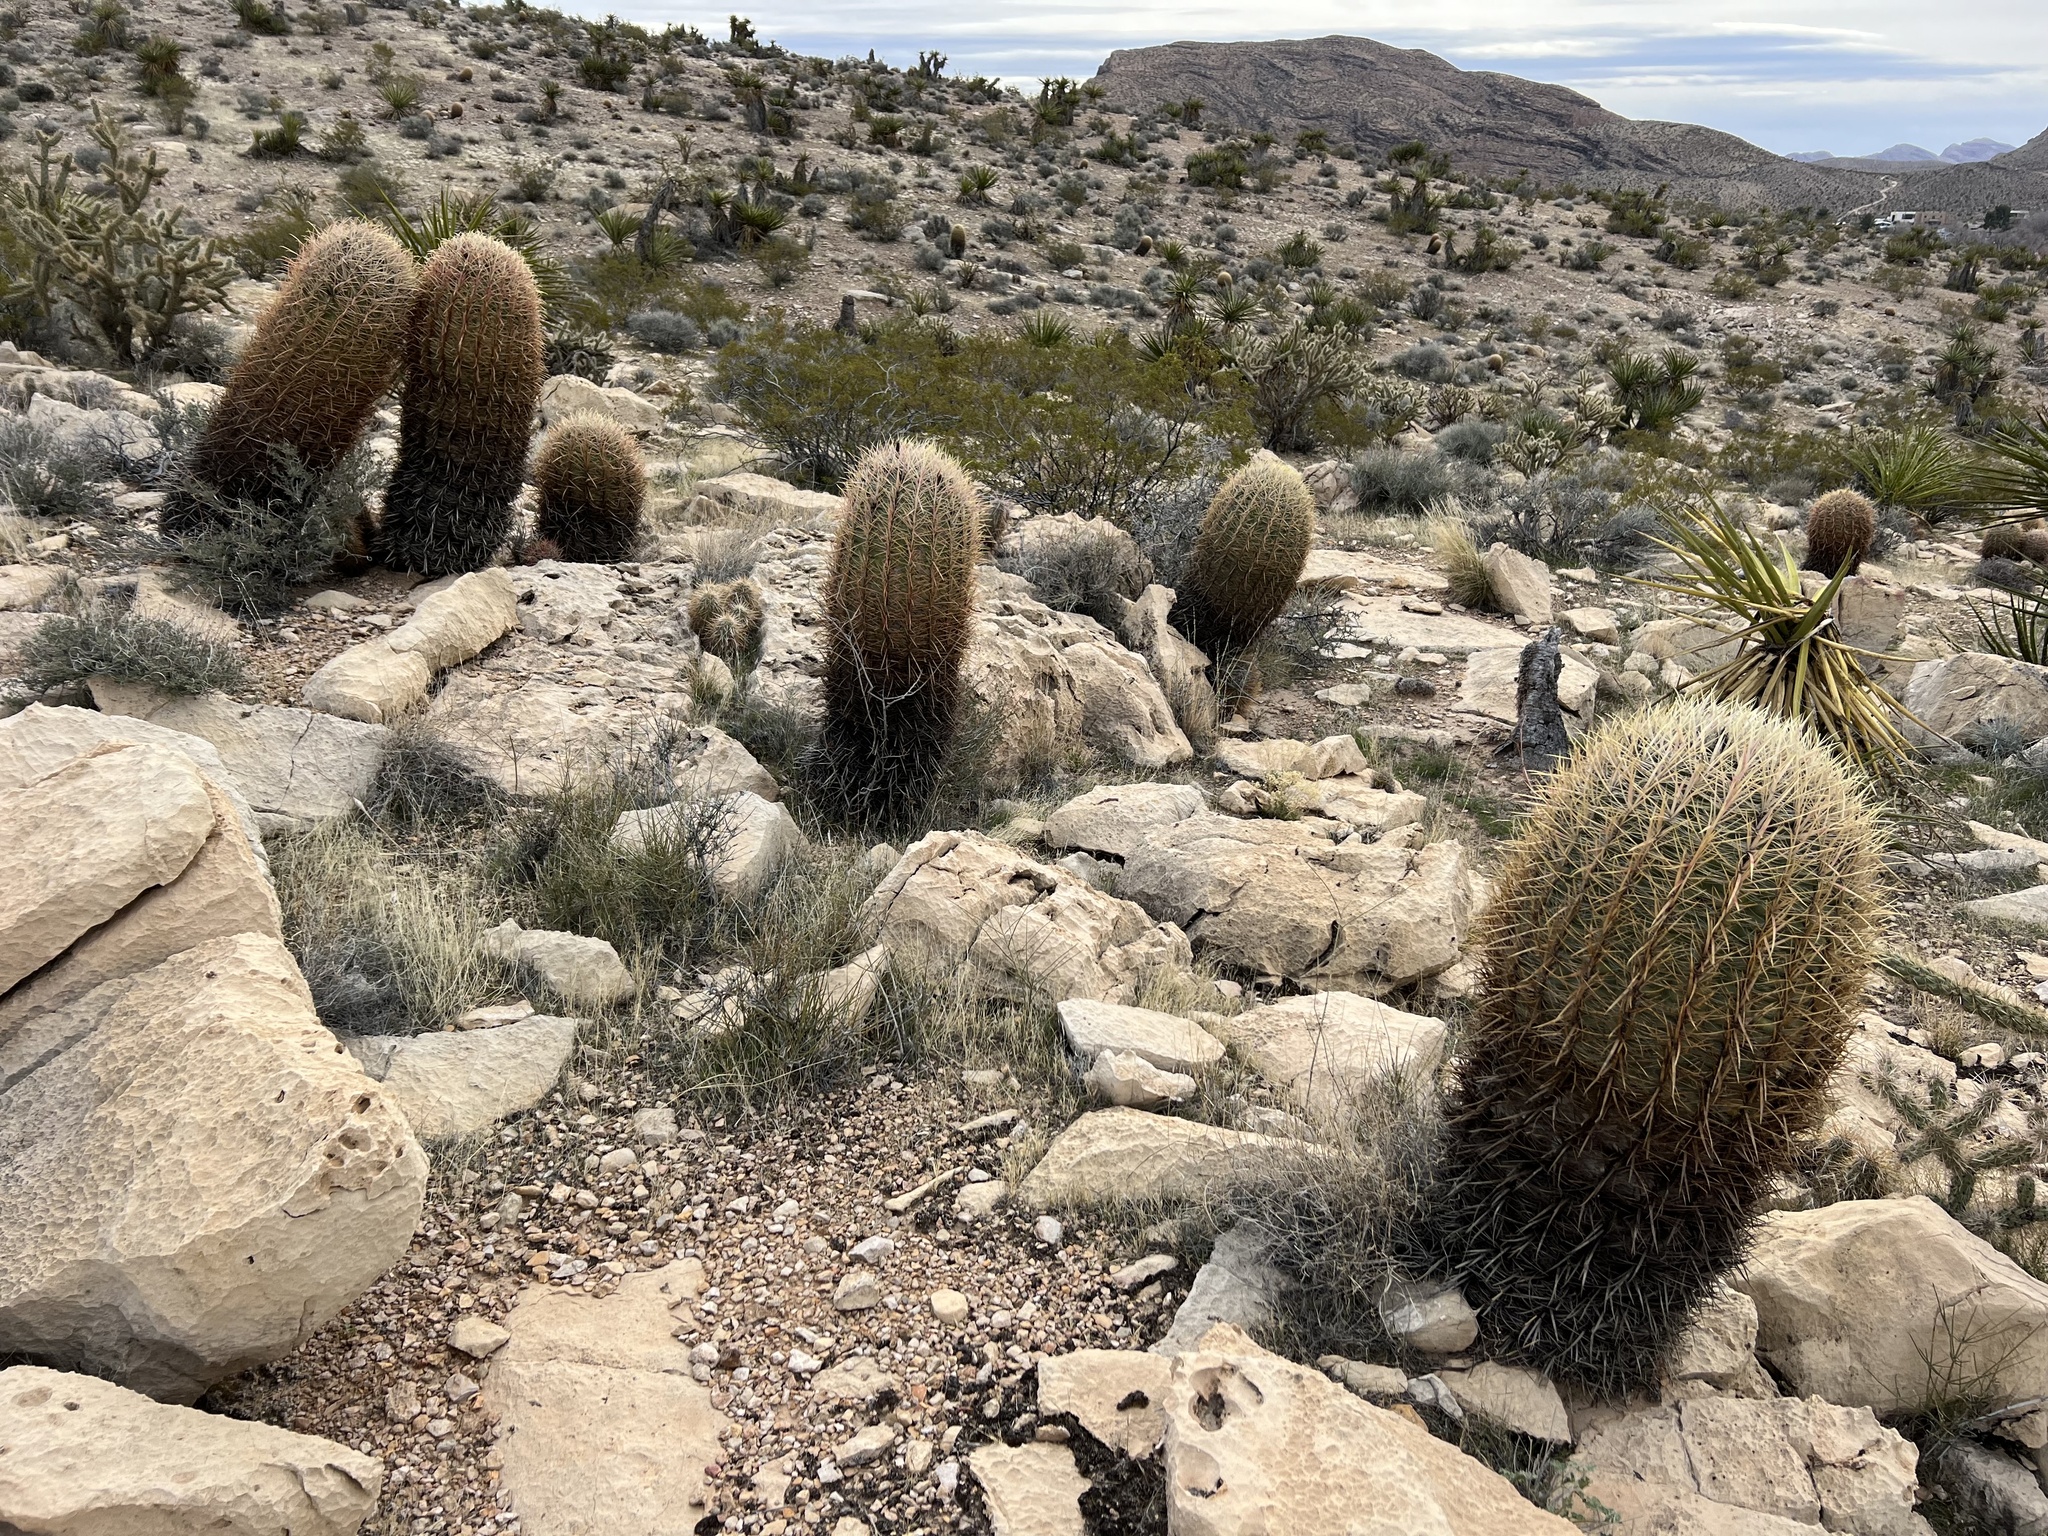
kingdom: Plantae
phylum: Tracheophyta
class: Magnoliopsida
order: Caryophyllales
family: Cactaceae
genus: Ferocactus
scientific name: Ferocactus cylindraceus
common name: California barrel cactus
